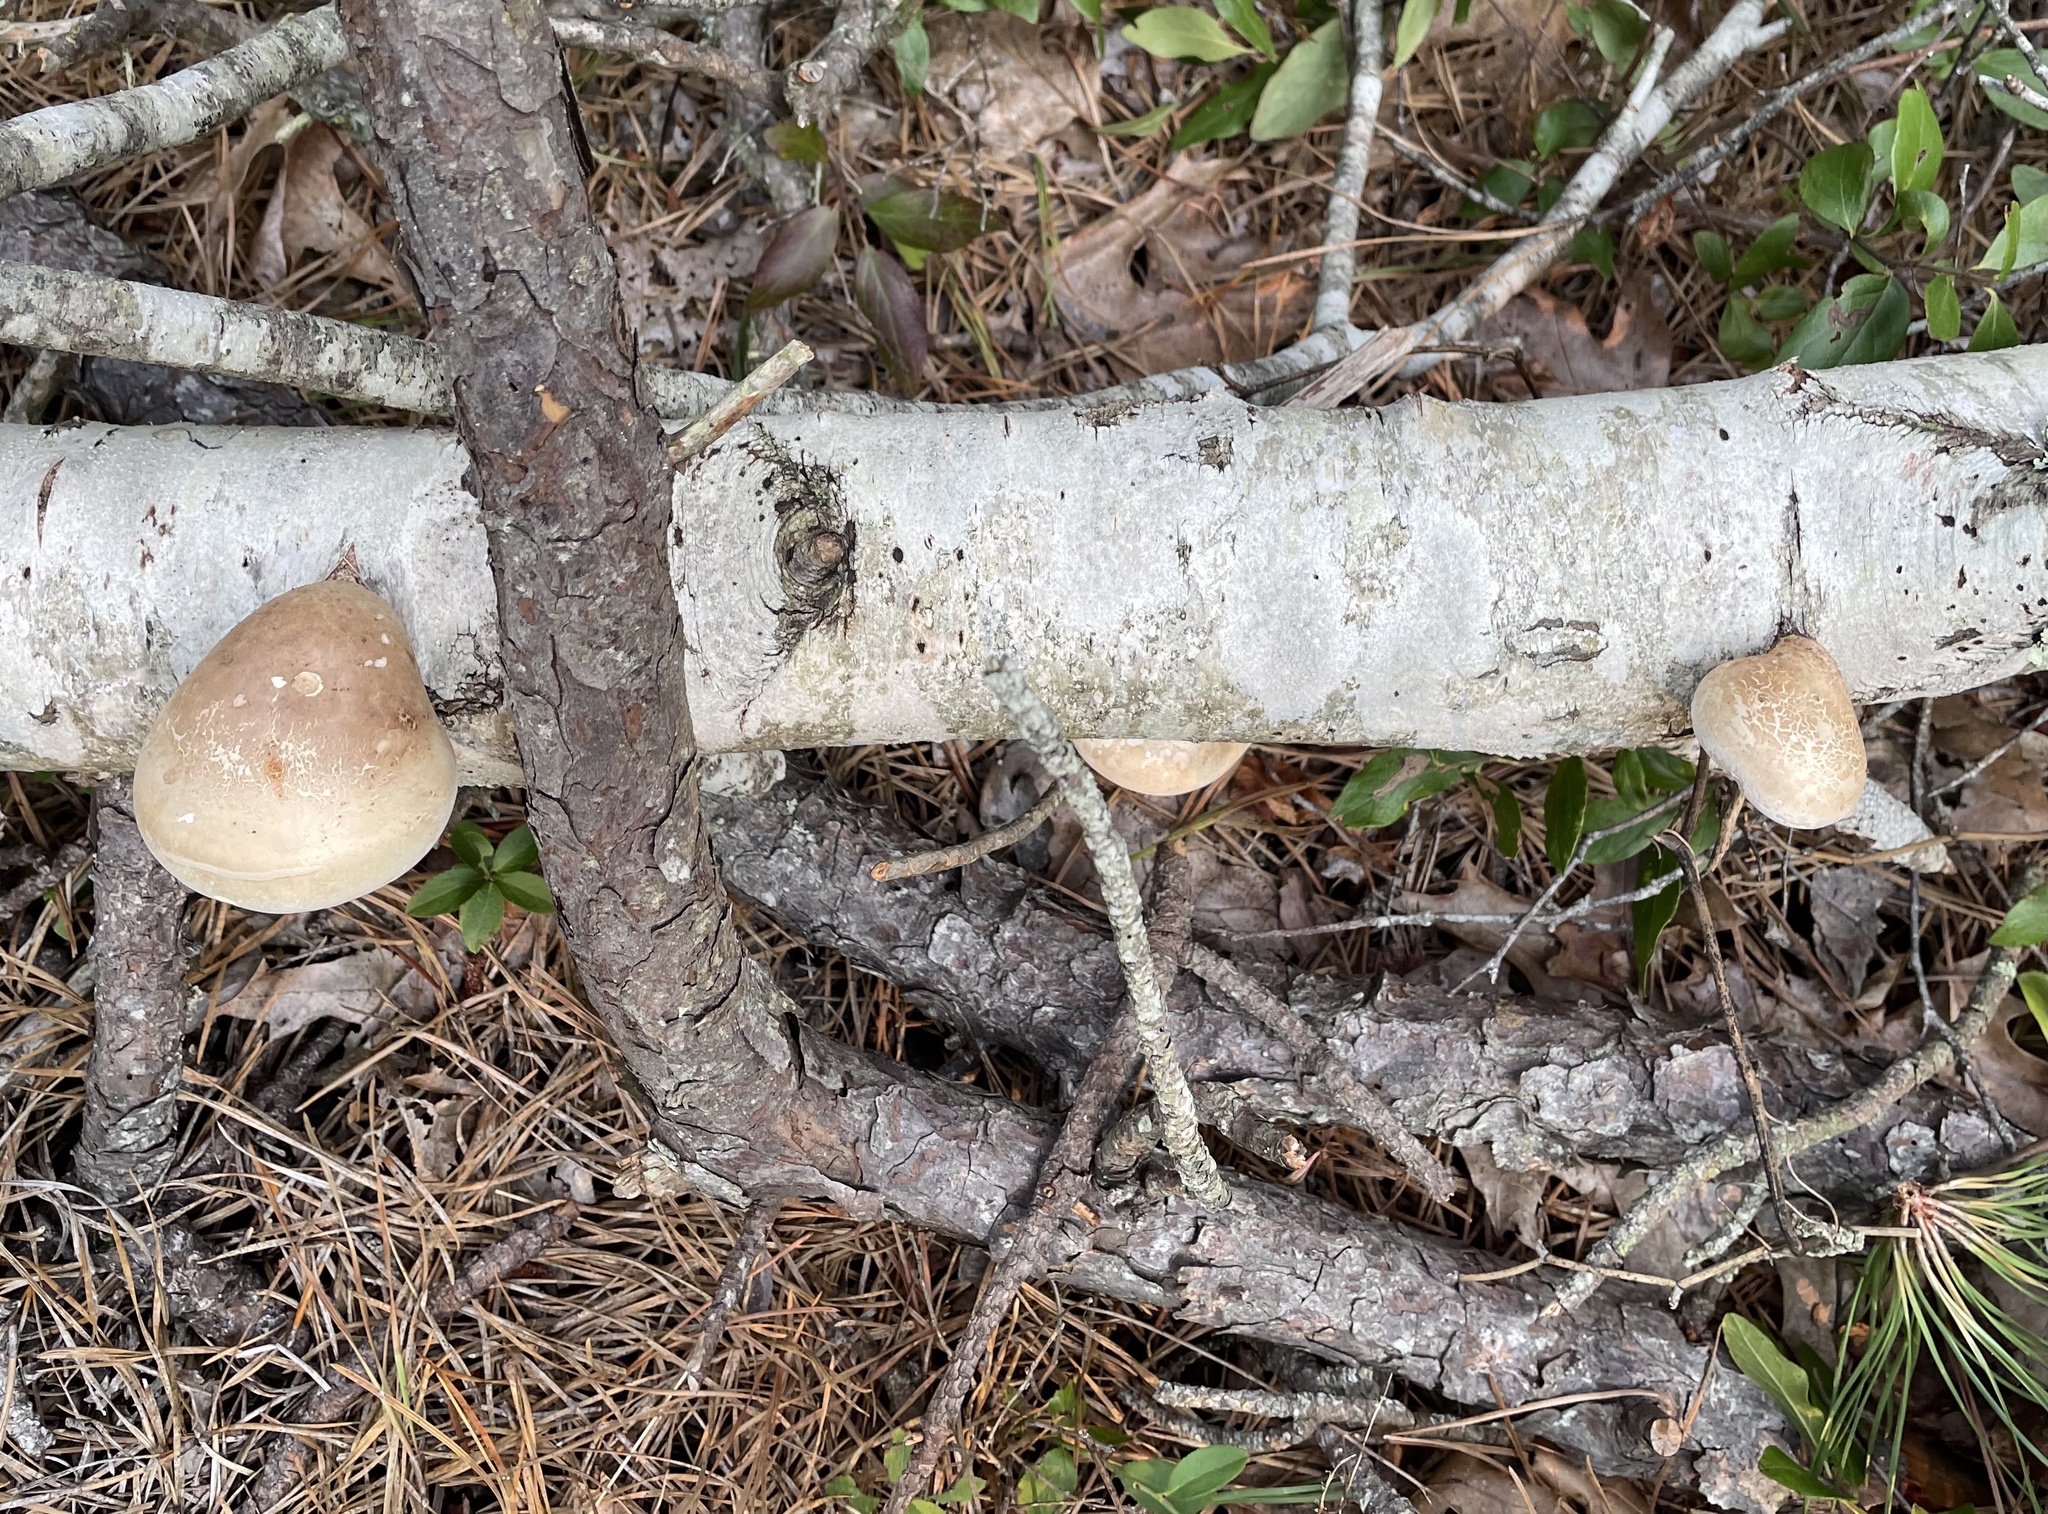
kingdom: Fungi
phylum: Basidiomycota
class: Agaricomycetes
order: Polyporales
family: Fomitopsidaceae
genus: Fomitopsis
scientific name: Fomitopsis betulina
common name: Birch polypore
